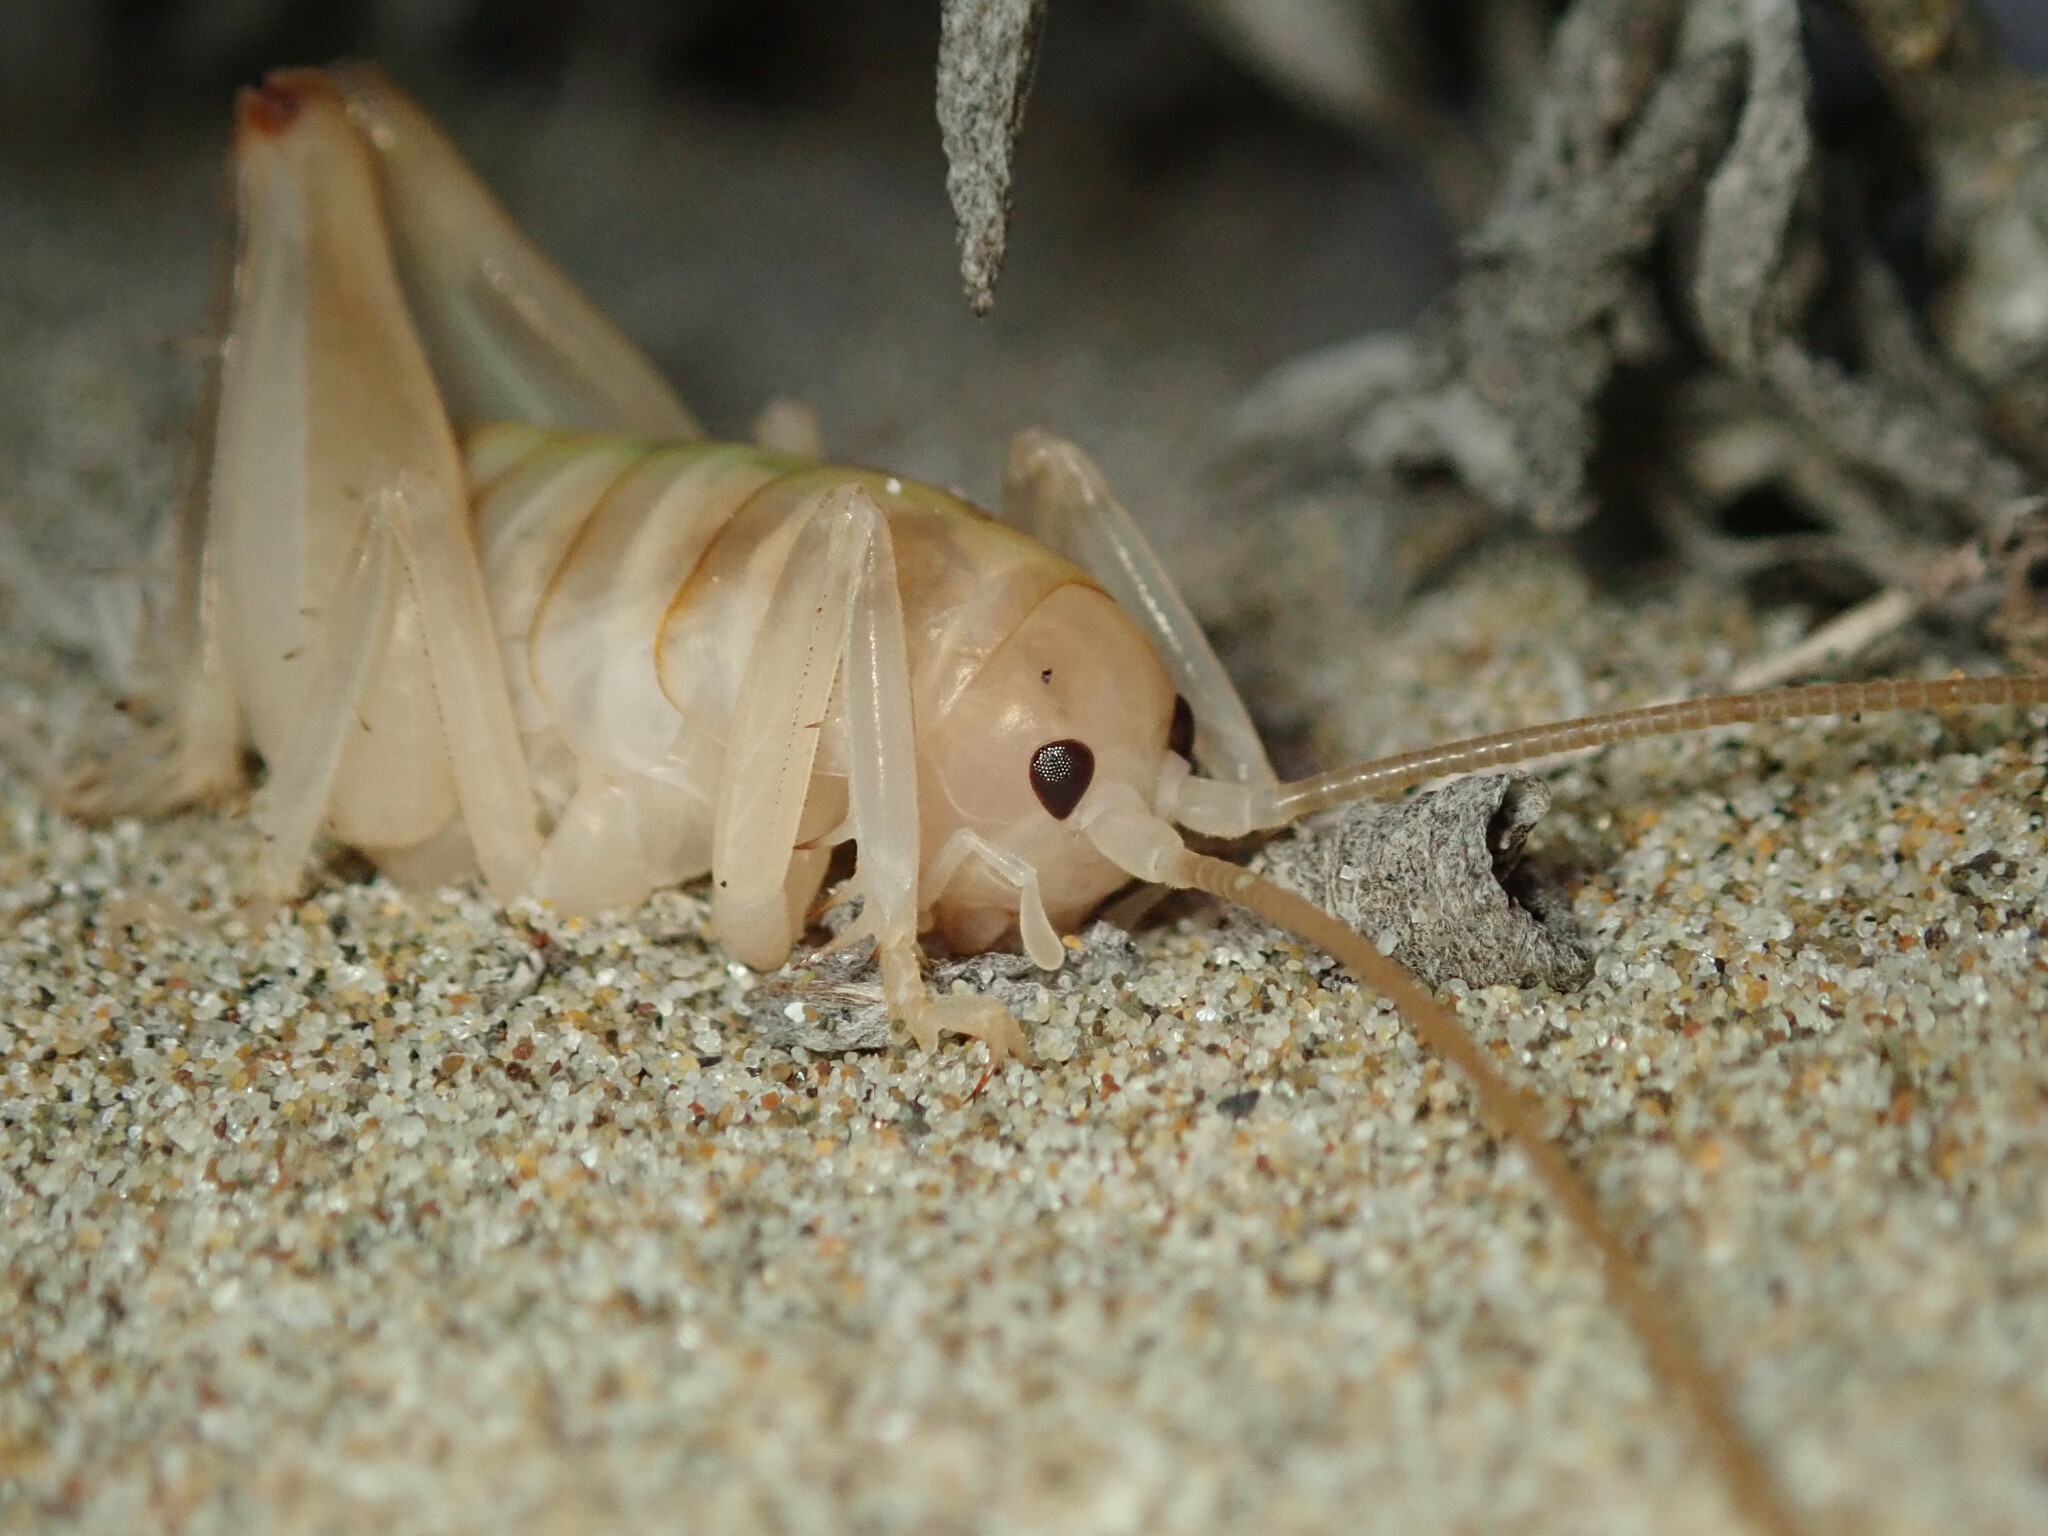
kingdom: Animalia
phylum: Arthropoda
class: Insecta
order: Orthoptera
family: Rhaphidophoridae
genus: Rhachocnemis
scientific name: Rhachocnemis validus
